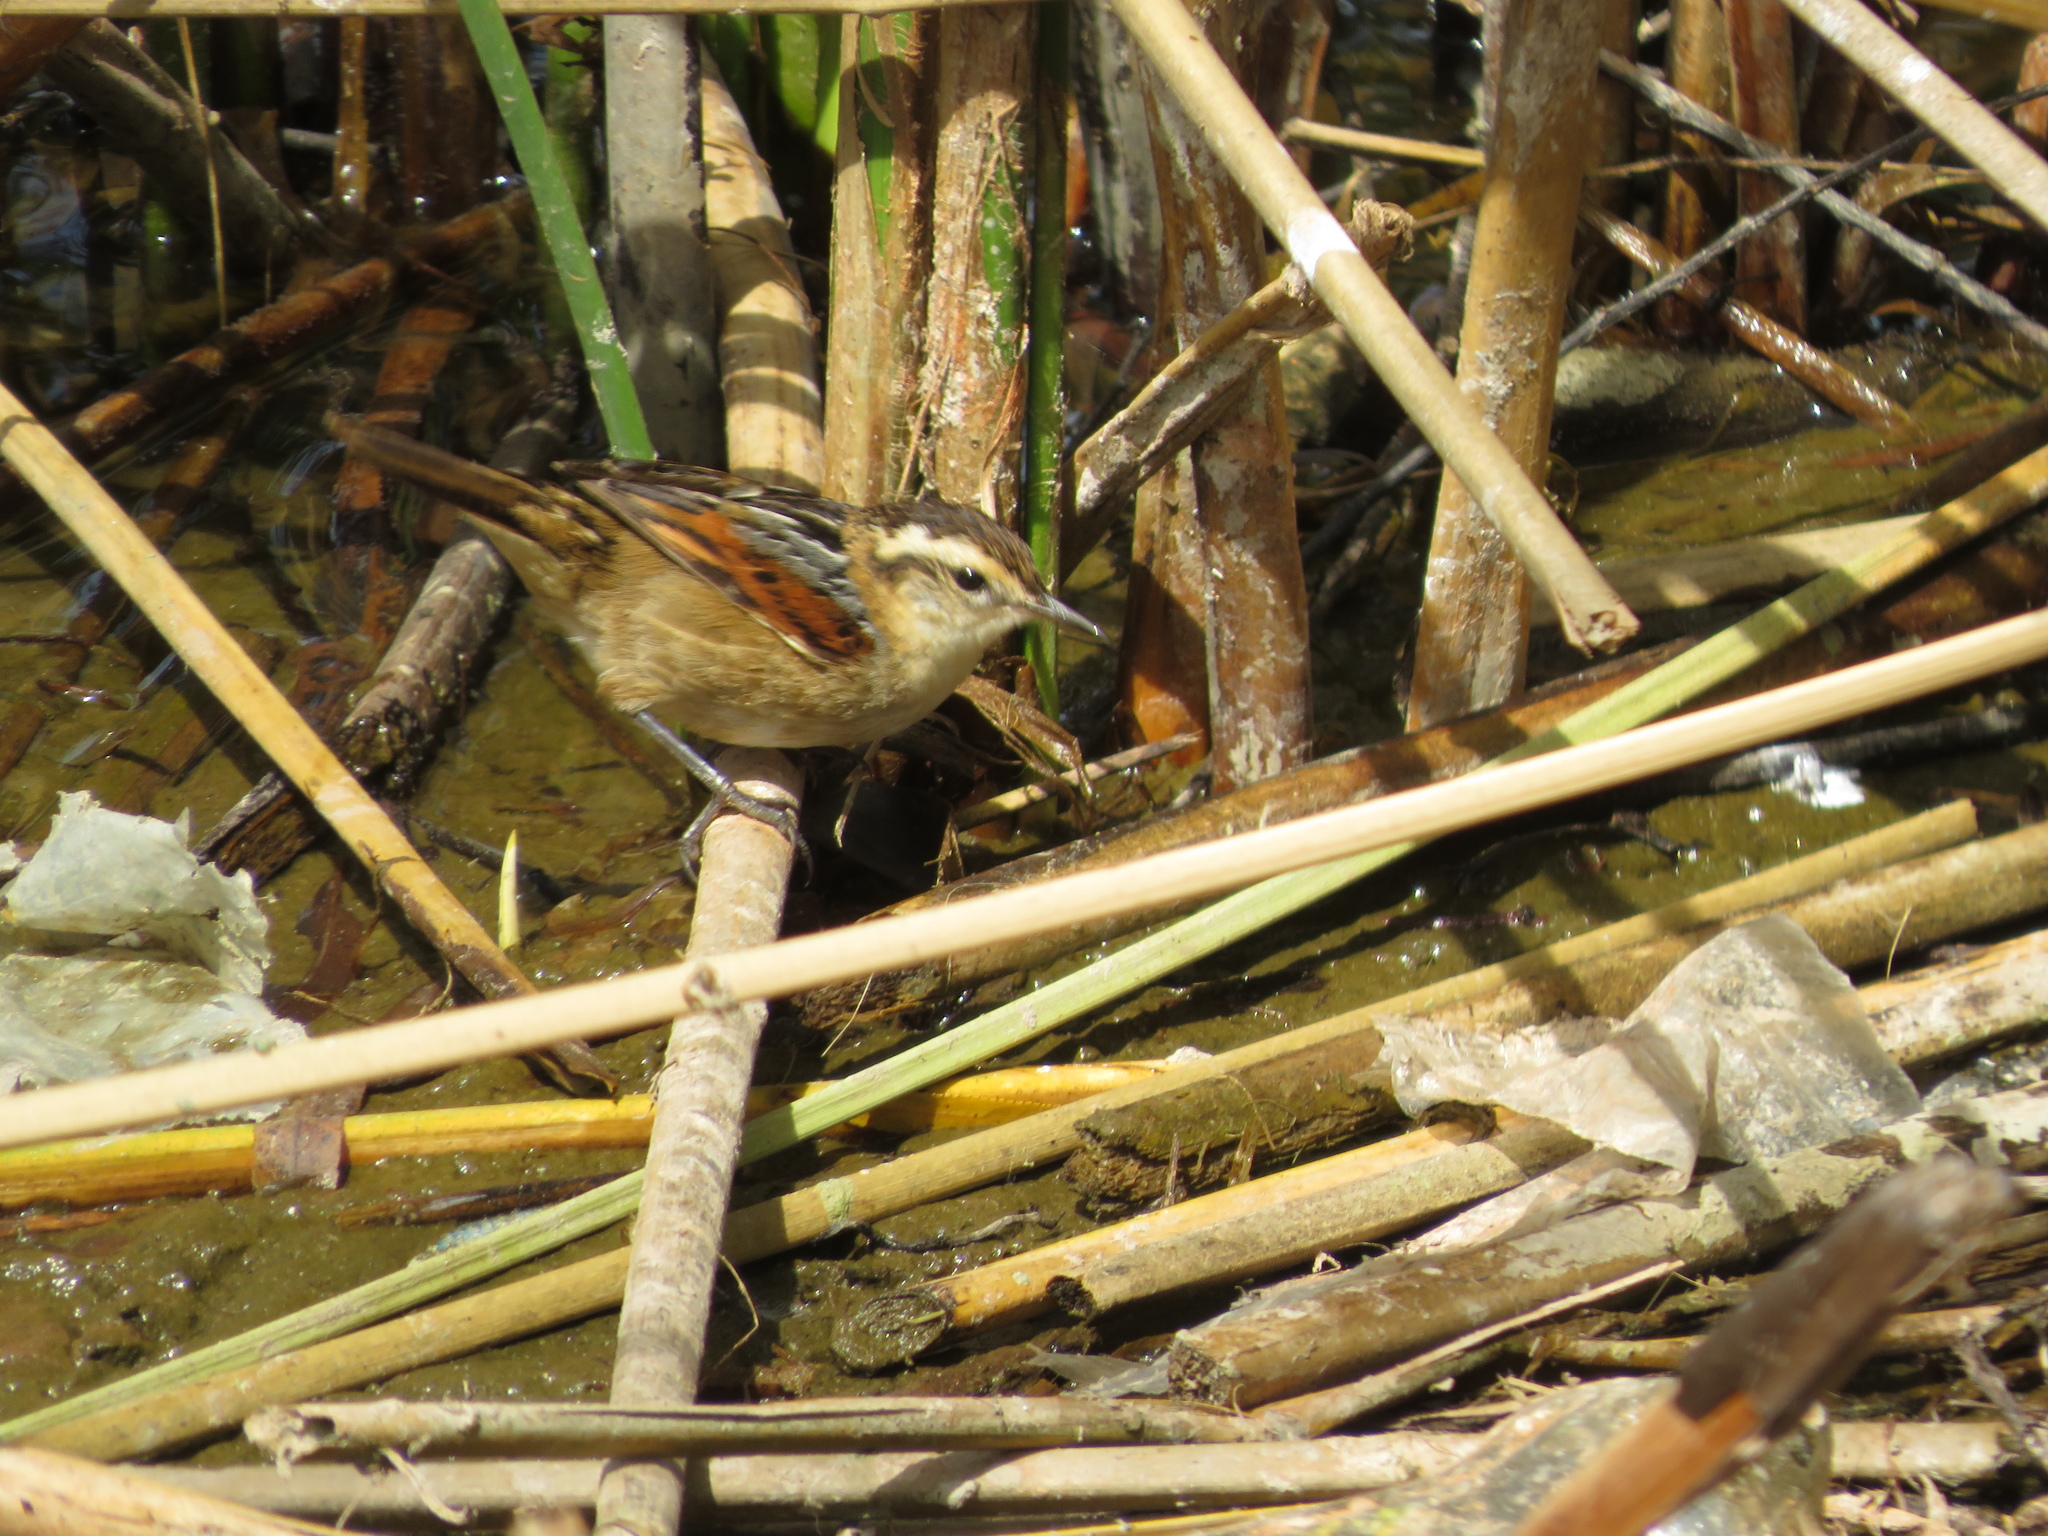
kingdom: Animalia
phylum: Chordata
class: Aves
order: Passeriformes
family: Furnariidae
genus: Phleocryptes
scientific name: Phleocryptes melanops
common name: Wren-like rushbird
